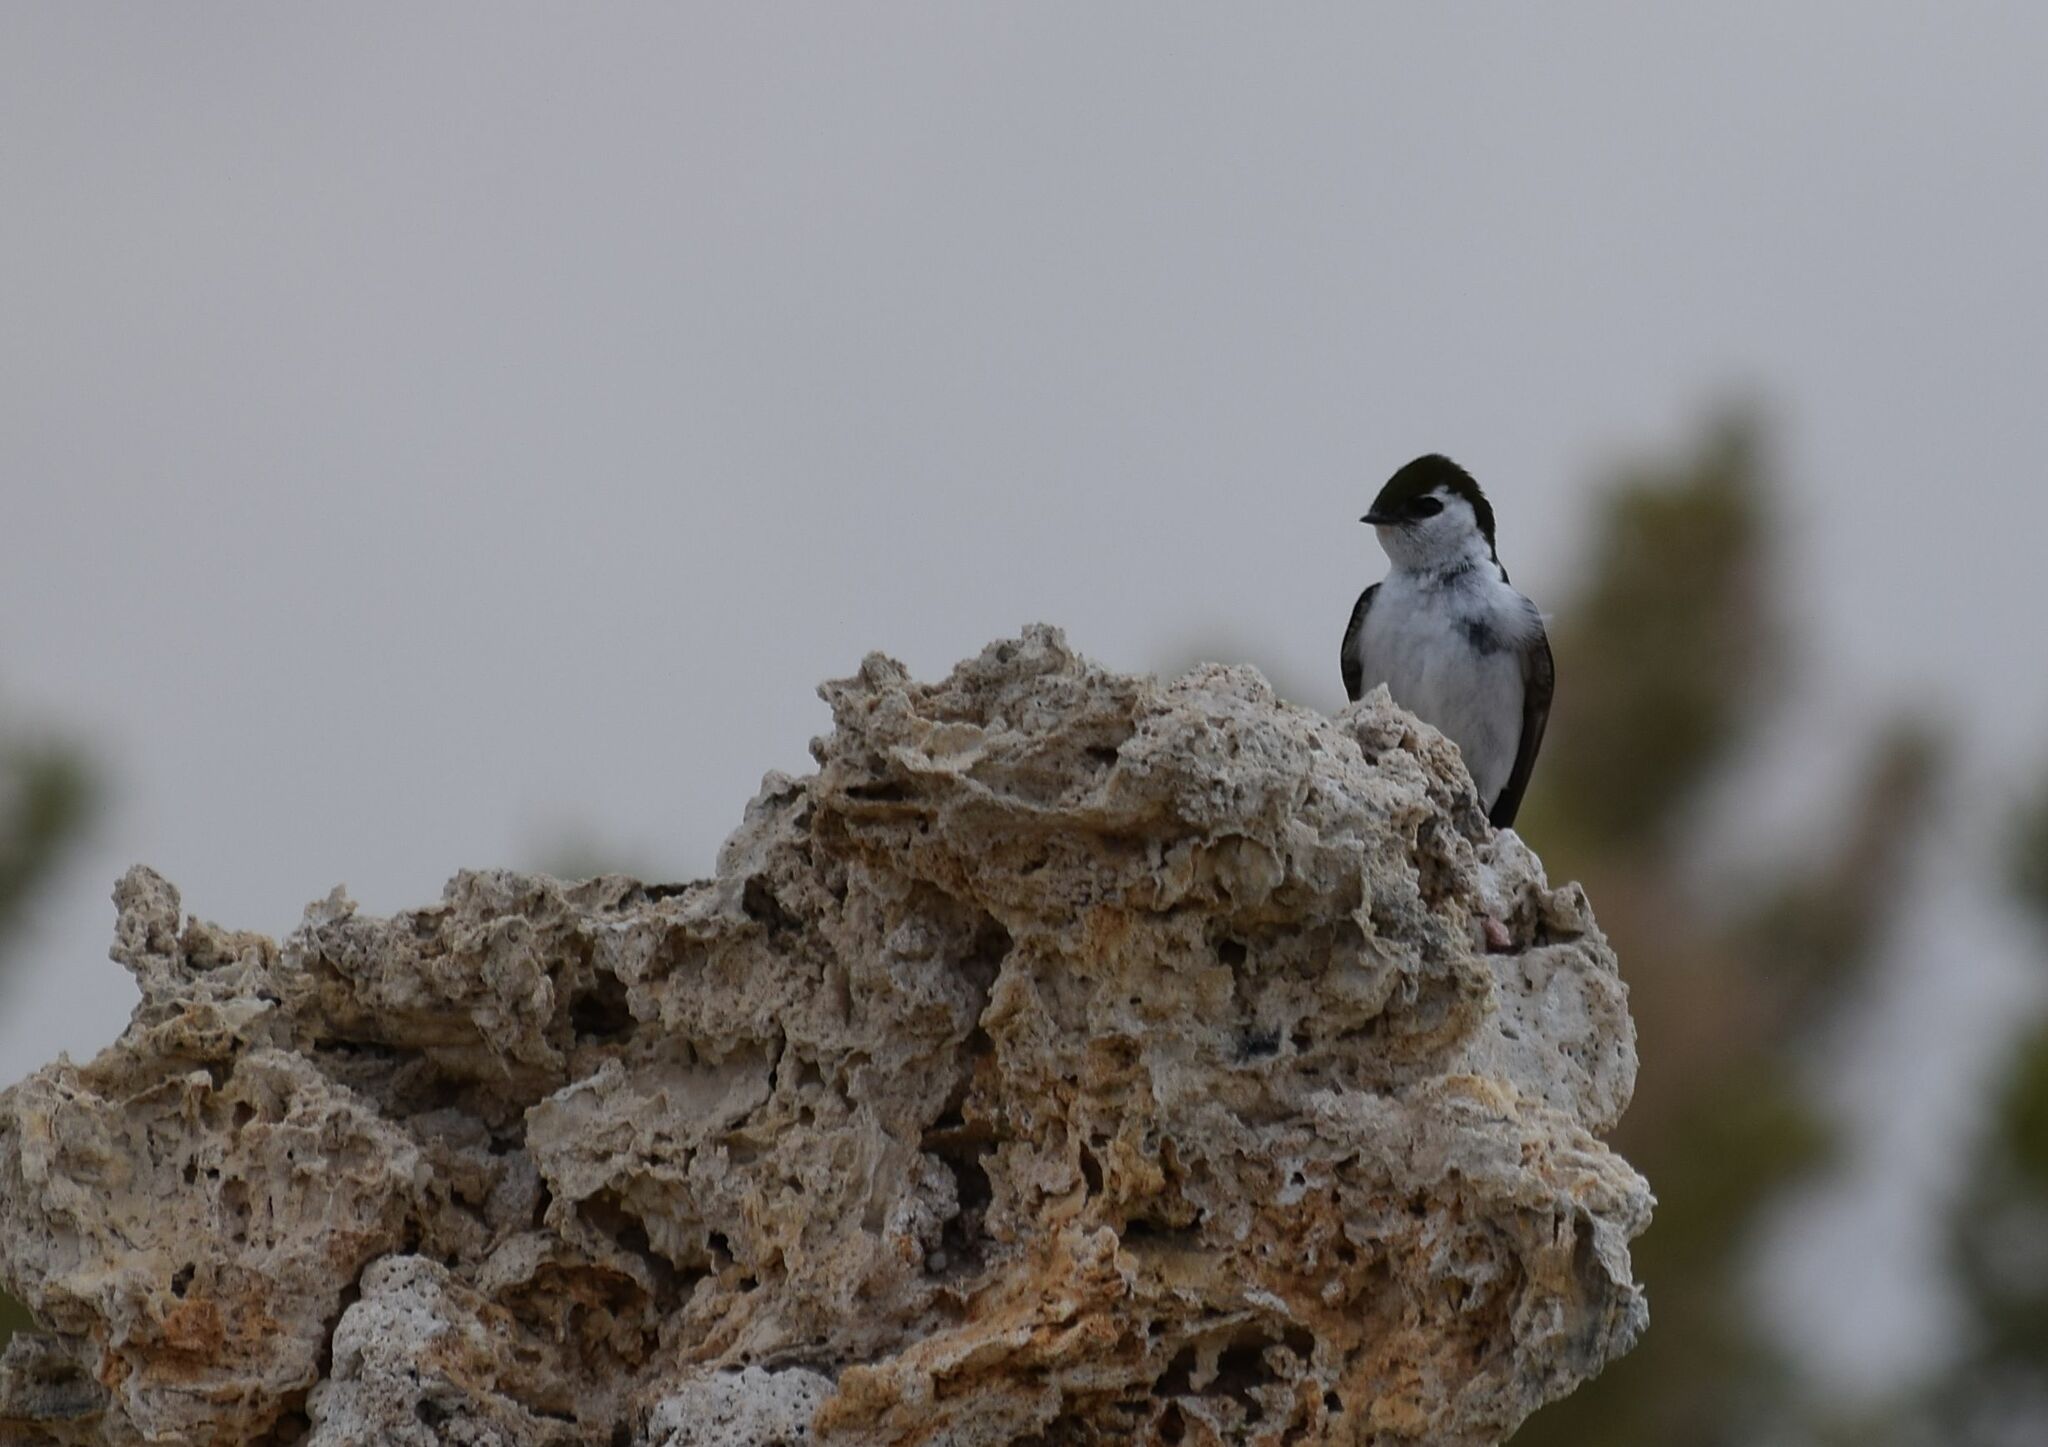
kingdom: Animalia
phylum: Chordata
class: Aves
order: Passeriformes
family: Hirundinidae
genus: Tachycineta
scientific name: Tachycineta thalassina
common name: Violet-green swallow
